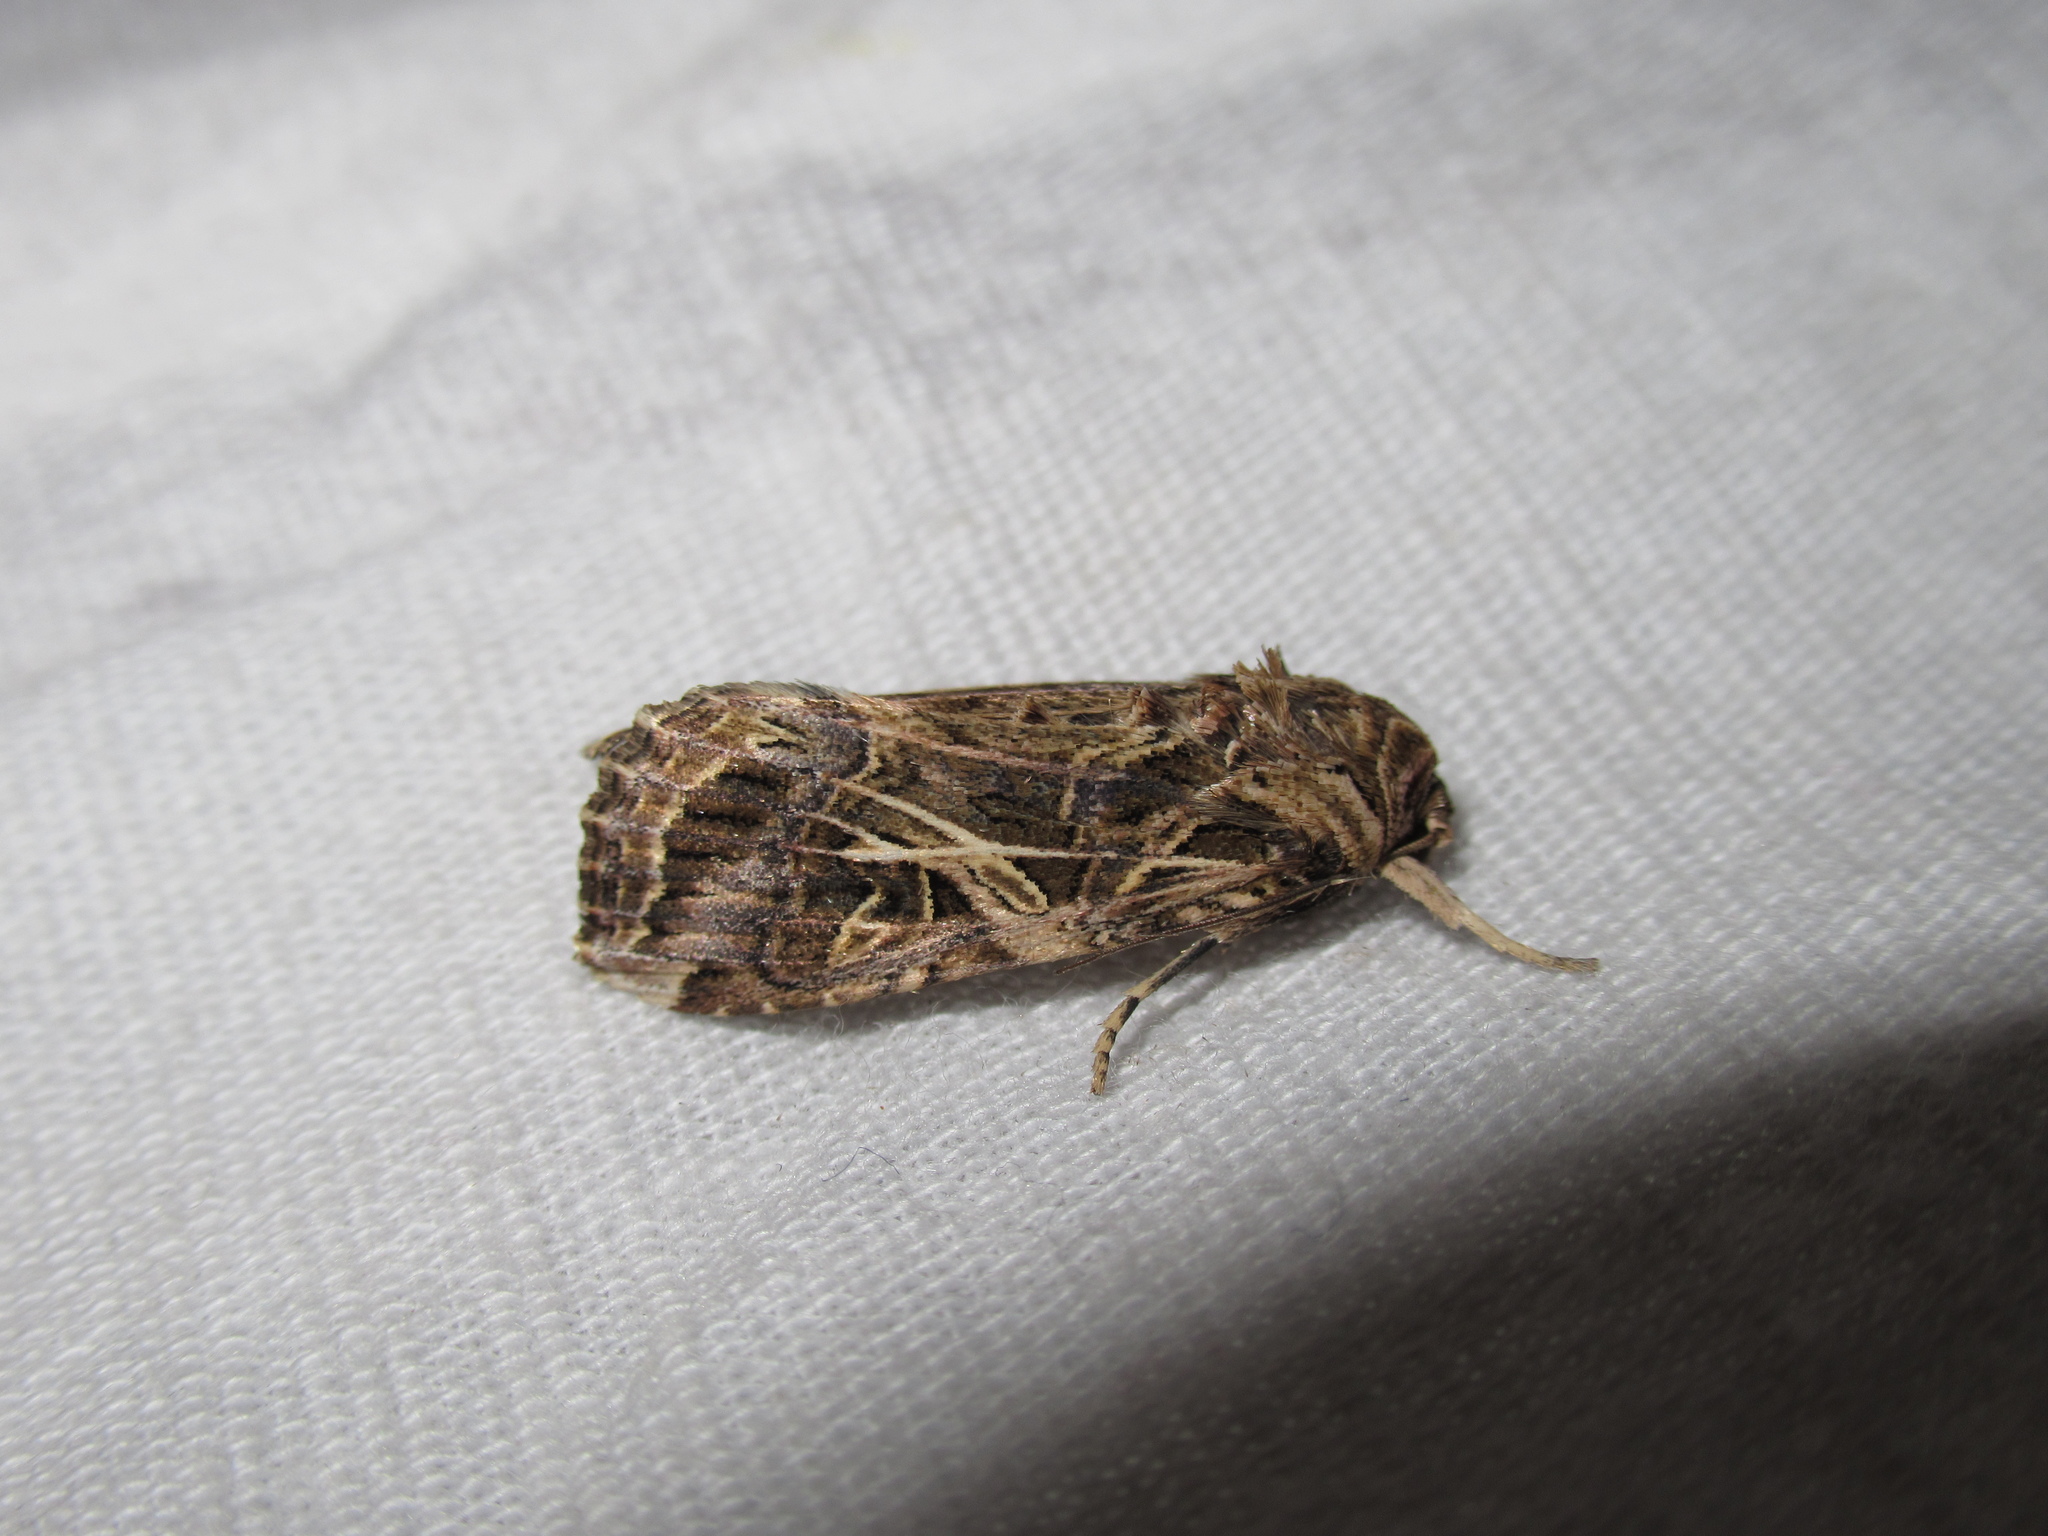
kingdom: Animalia
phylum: Arthropoda
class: Insecta
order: Lepidoptera
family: Noctuidae
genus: Spodoptera
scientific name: Spodoptera litura
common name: Asian cotton leafworm
